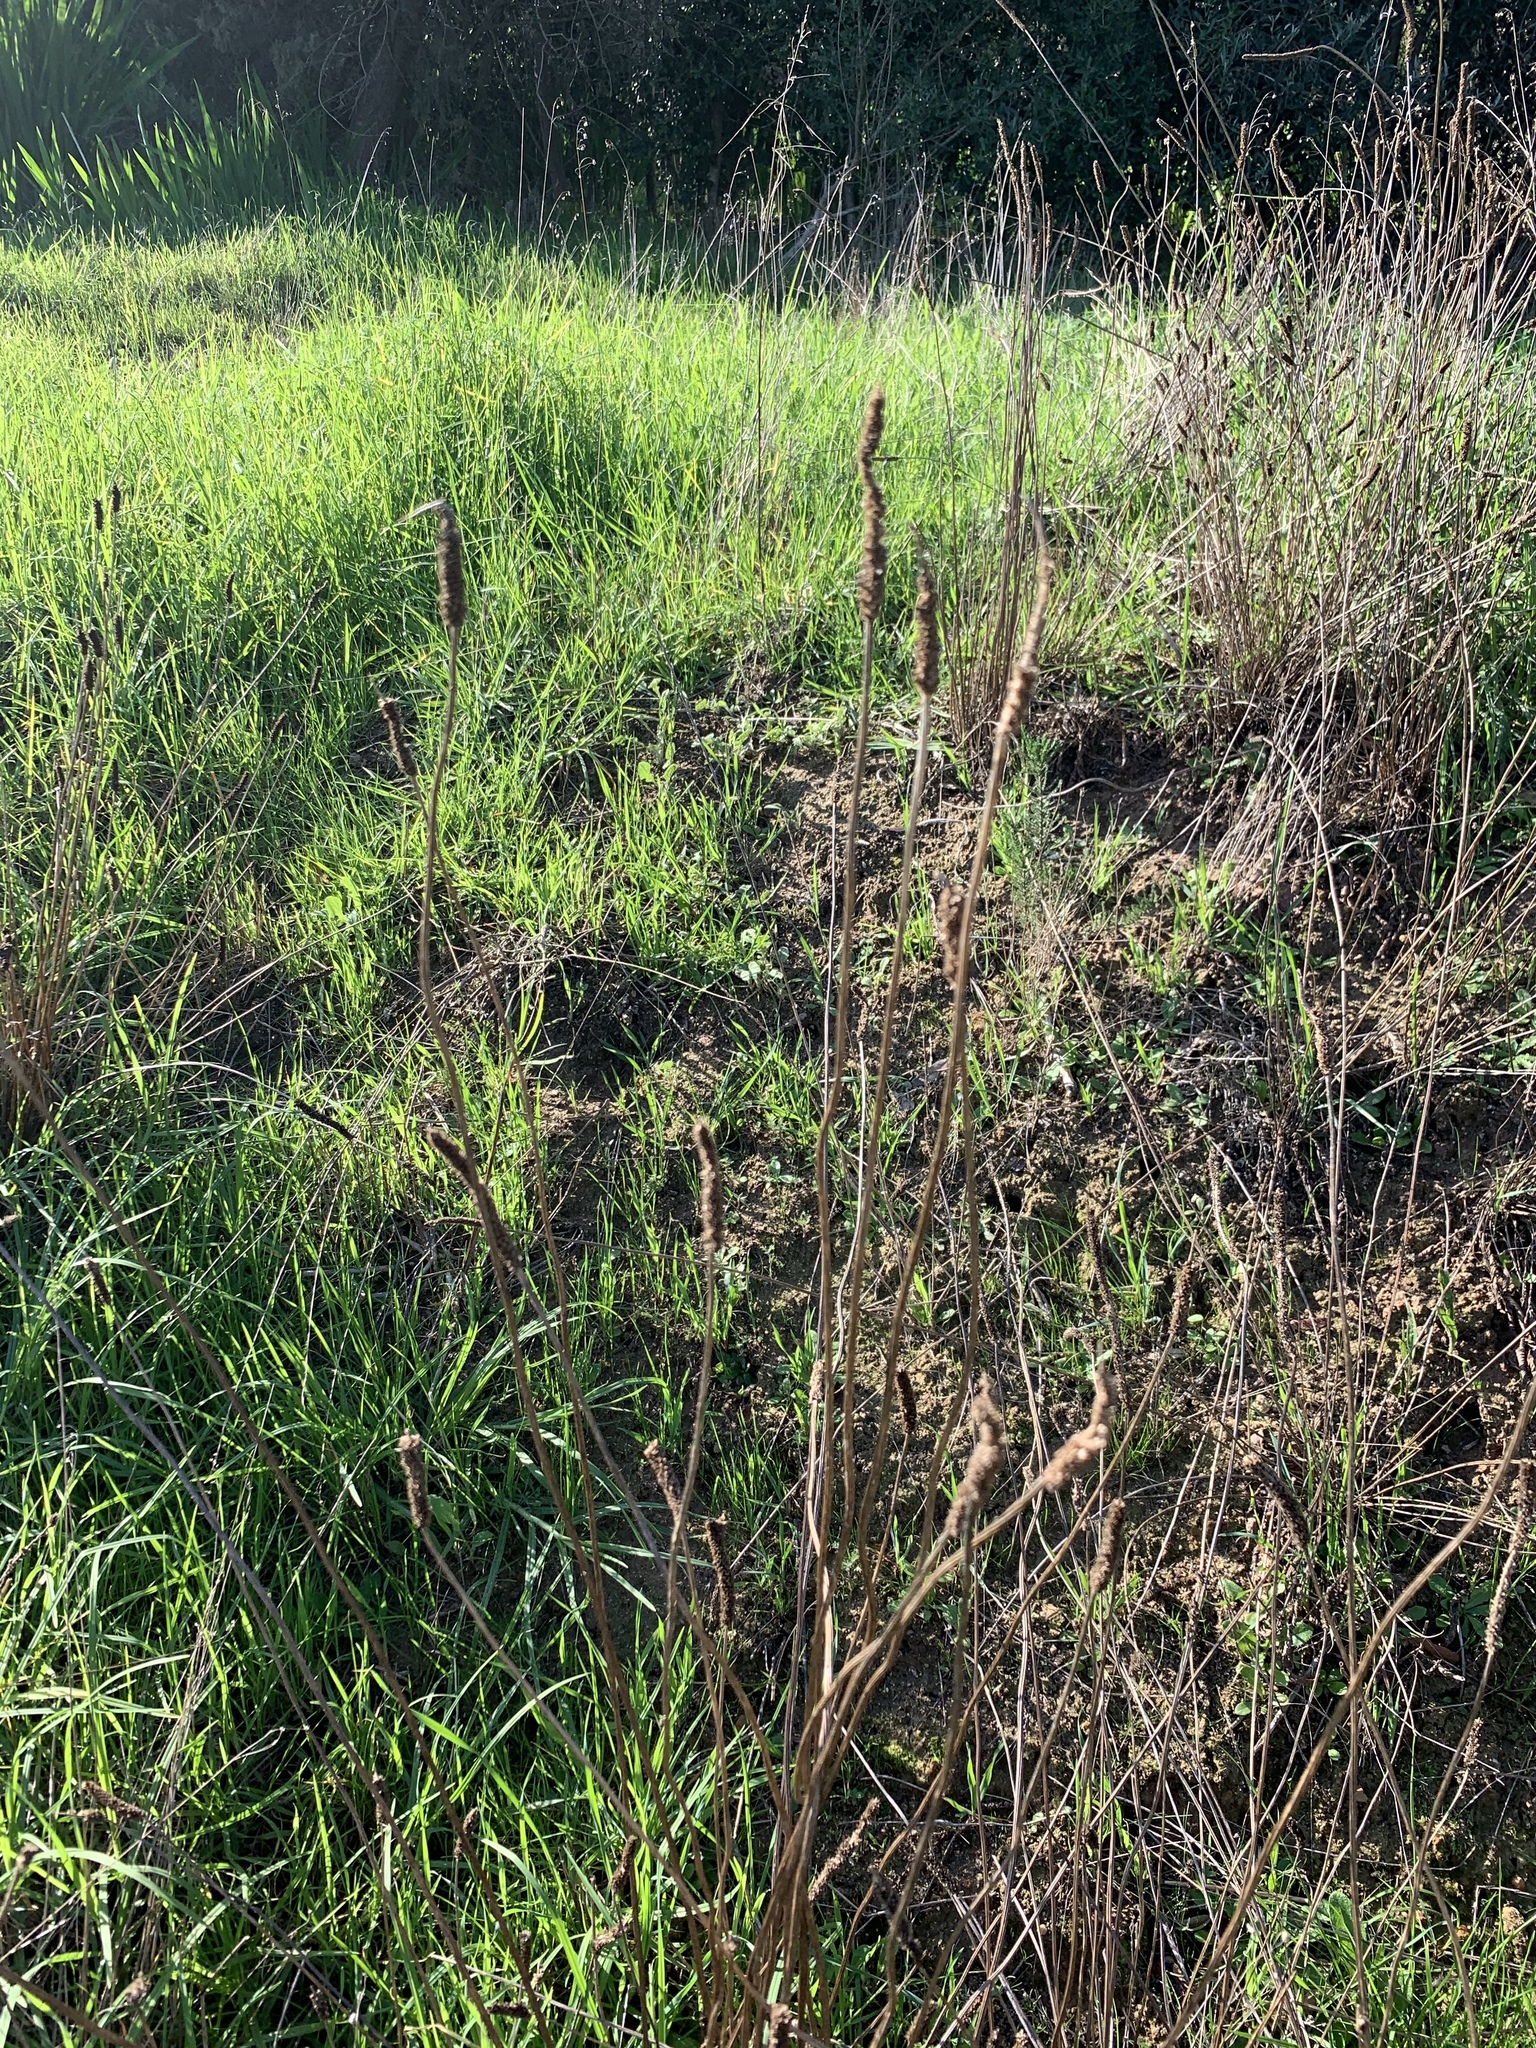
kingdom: Plantae
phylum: Tracheophyta
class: Magnoliopsida
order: Lamiales
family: Plantaginaceae
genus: Plantago
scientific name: Plantago lanceolata
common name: Ribwort plantain
